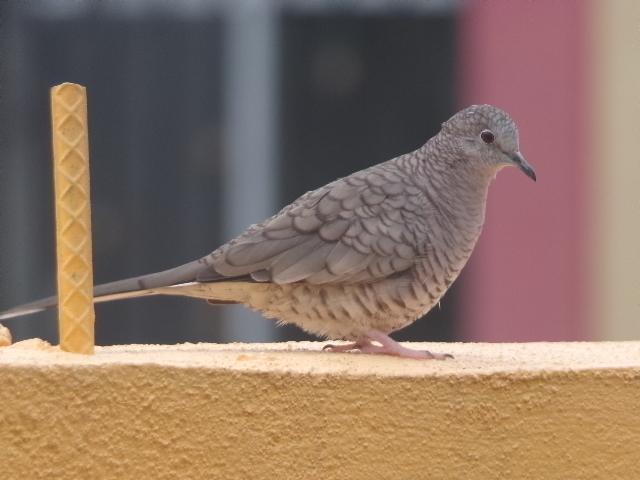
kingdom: Animalia
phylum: Chordata
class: Aves
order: Columbiformes
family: Columbidae
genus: Columbina
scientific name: Columbina inca
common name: Inca dove
